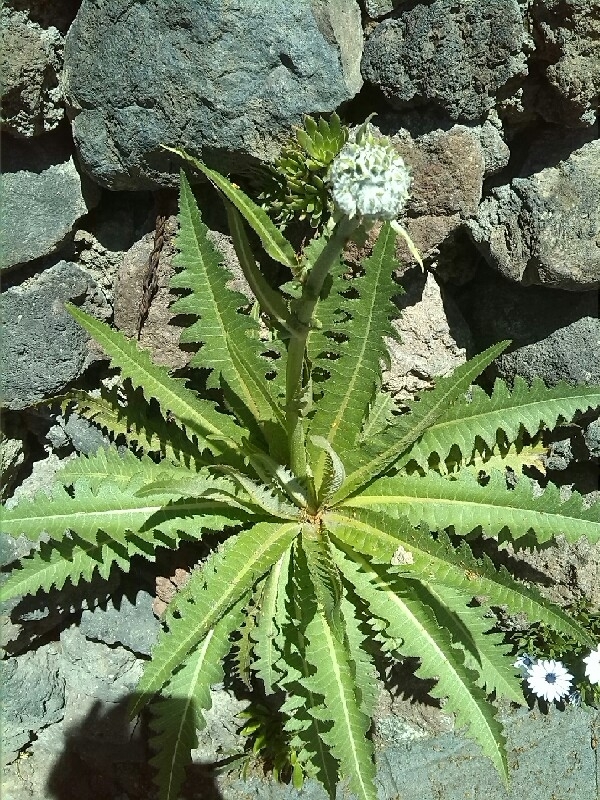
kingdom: Plantae
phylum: Tracheophyta
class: Magnoliopsida
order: Asterales
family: Asteraceae
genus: Sonchus
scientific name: Sonchus acaulis
